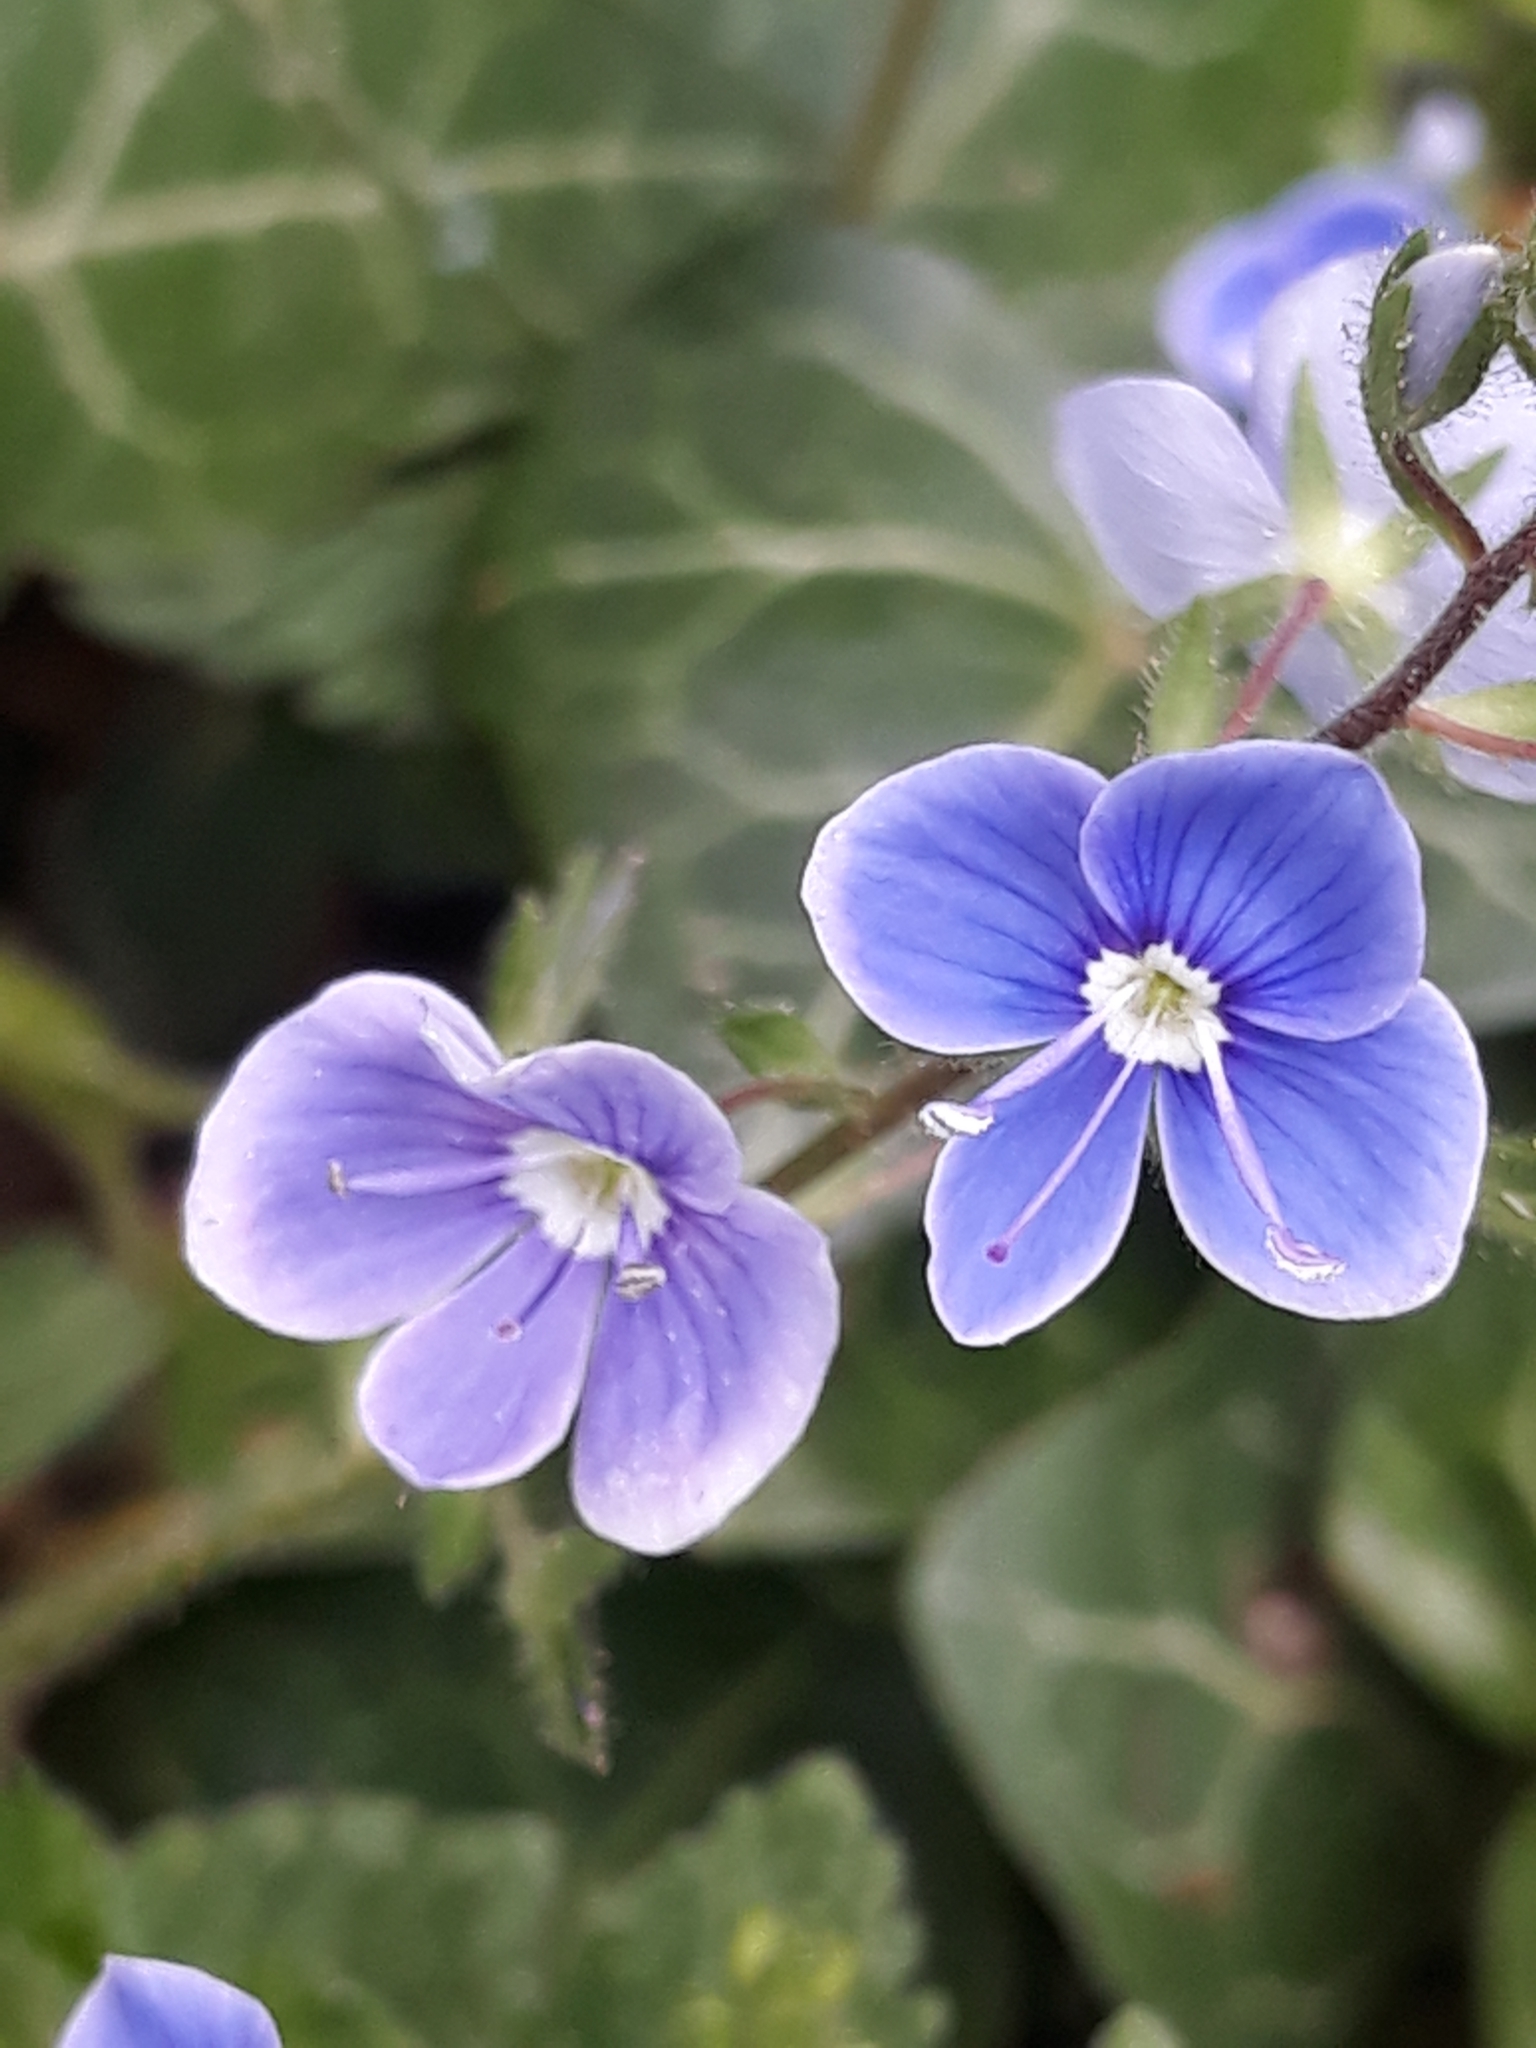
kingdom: Plantae
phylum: Tracheophyta
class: Magnoliopsida
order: Lamiales
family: Plantaginaceae
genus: Veronica
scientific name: Veronica chamaedrys
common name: Germander speedwell
